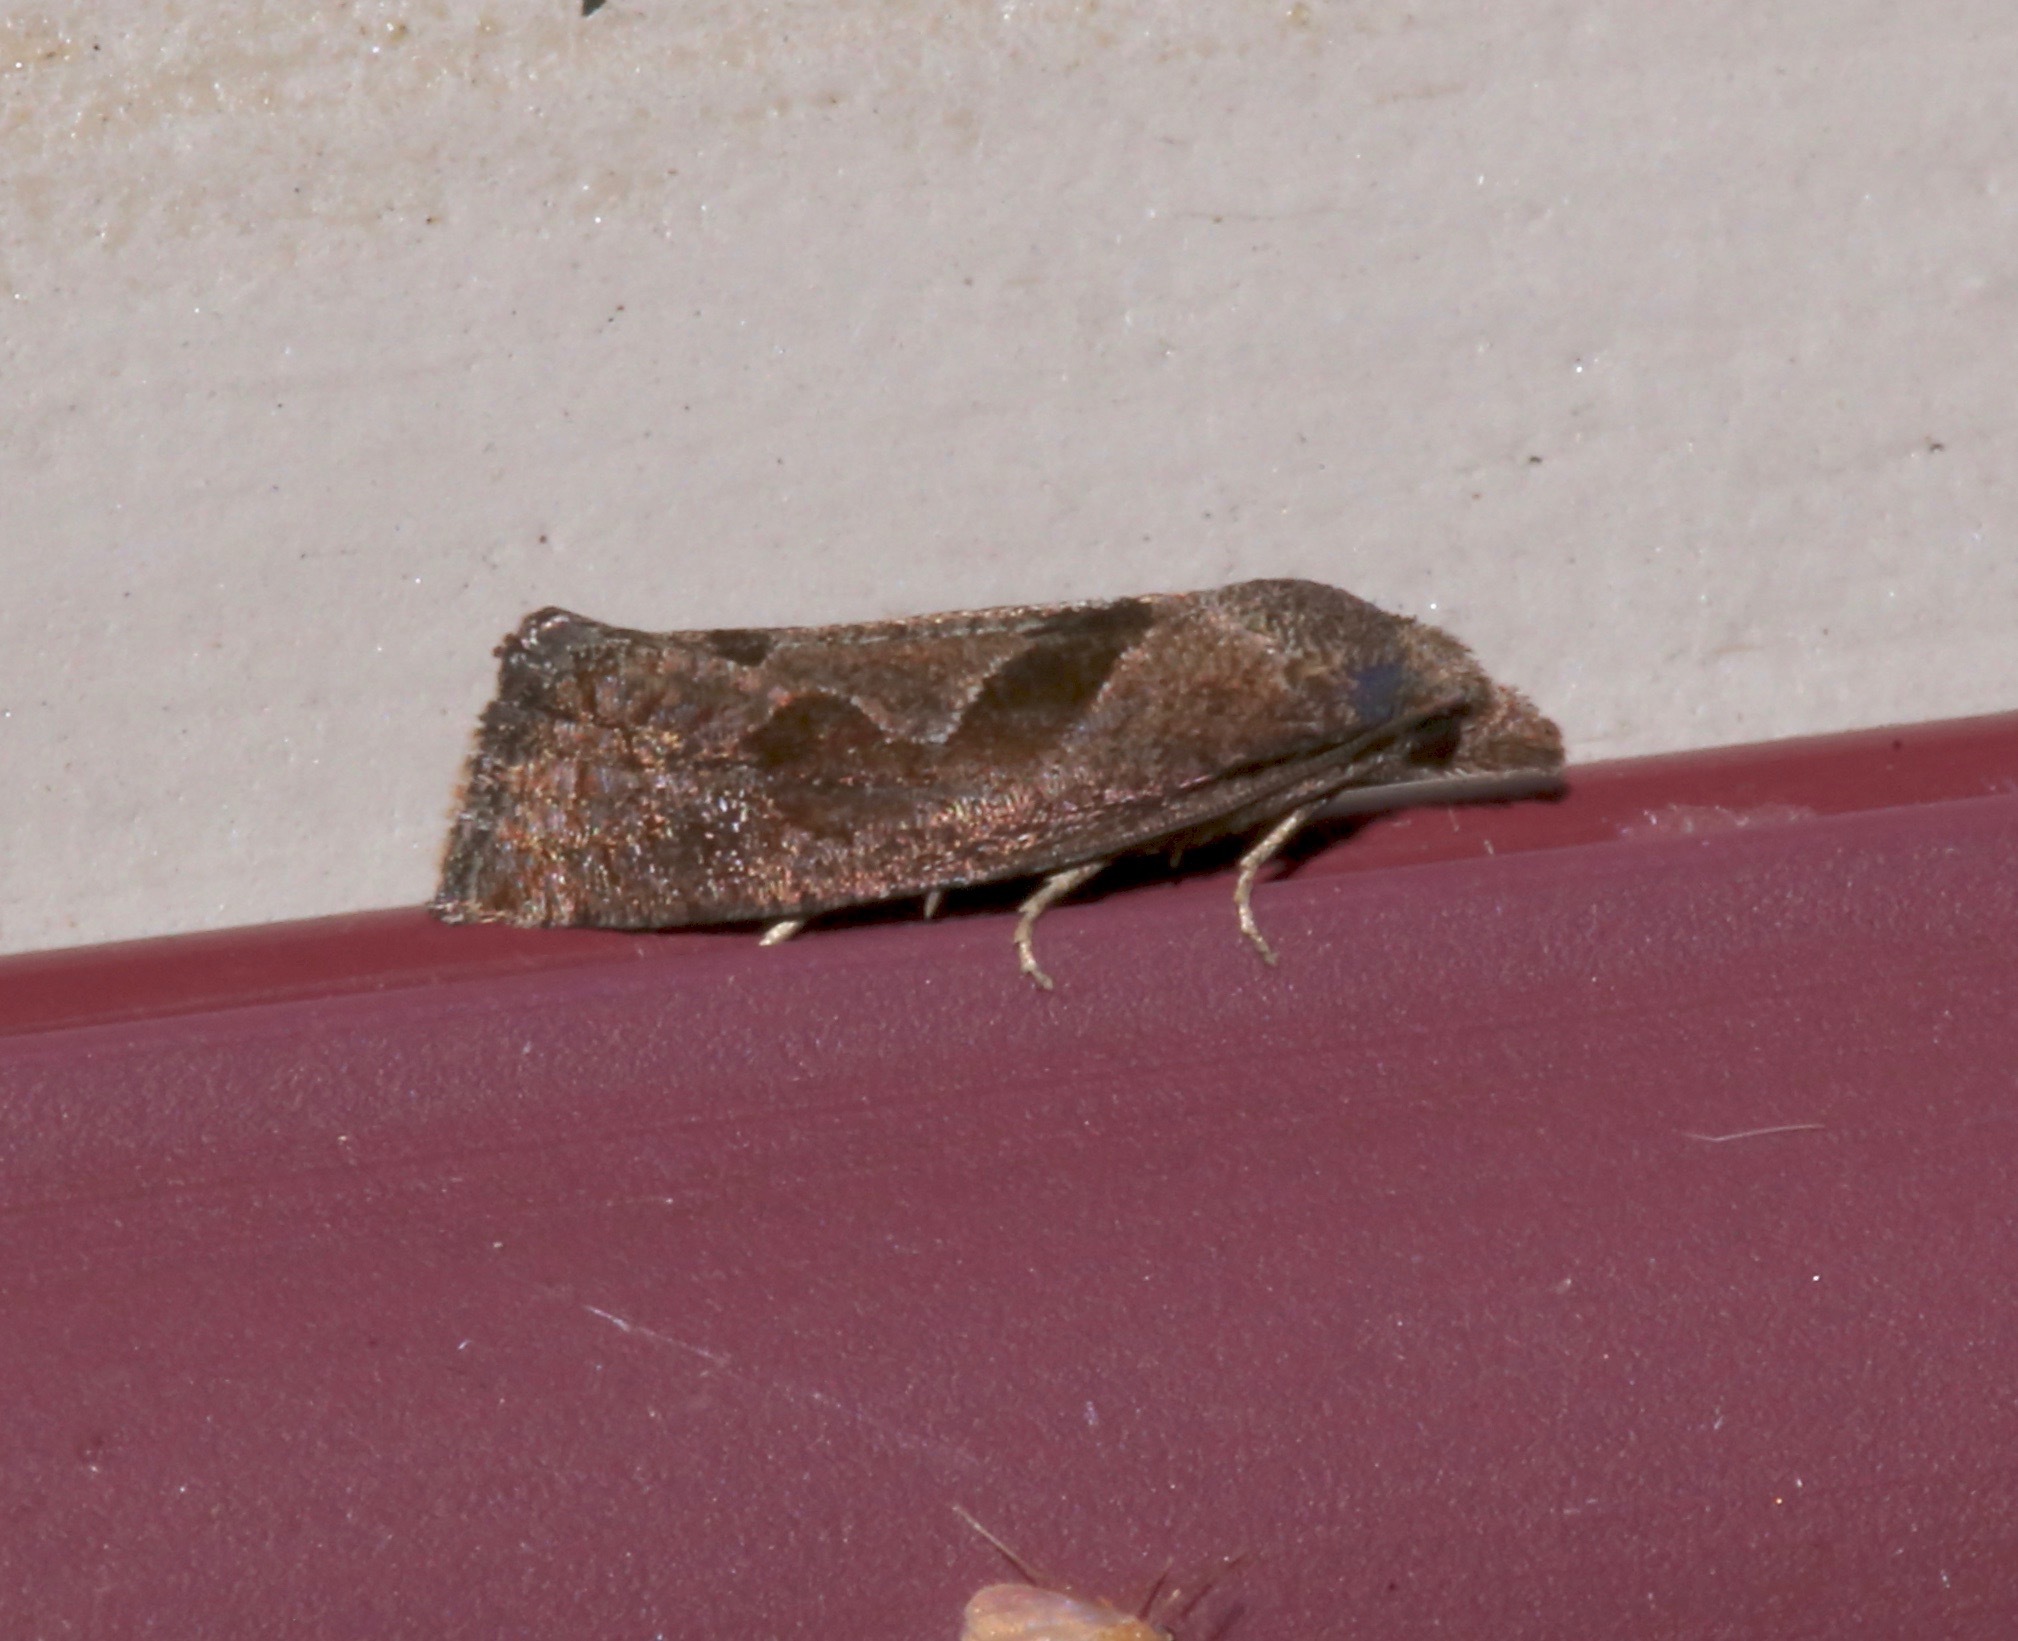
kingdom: Animalia
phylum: Arthropoda
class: Insecta
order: Lepidoptera
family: Tortricidae
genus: Pelochrista
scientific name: Pelochrista similiana
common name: Similar eucosma
